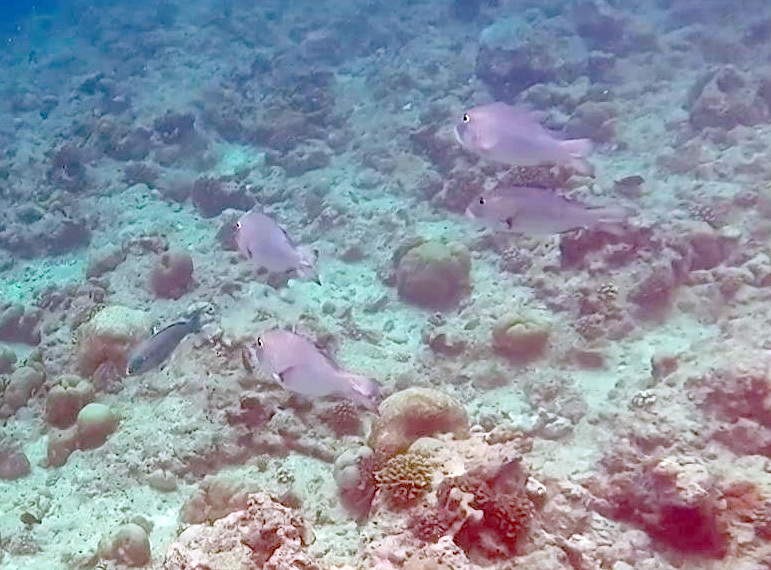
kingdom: Animalia
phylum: Chordata
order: Perciformes
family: Lethrinidae
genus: Monotaxis
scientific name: Monotaxis grandoculis
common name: Bigeye emperor
